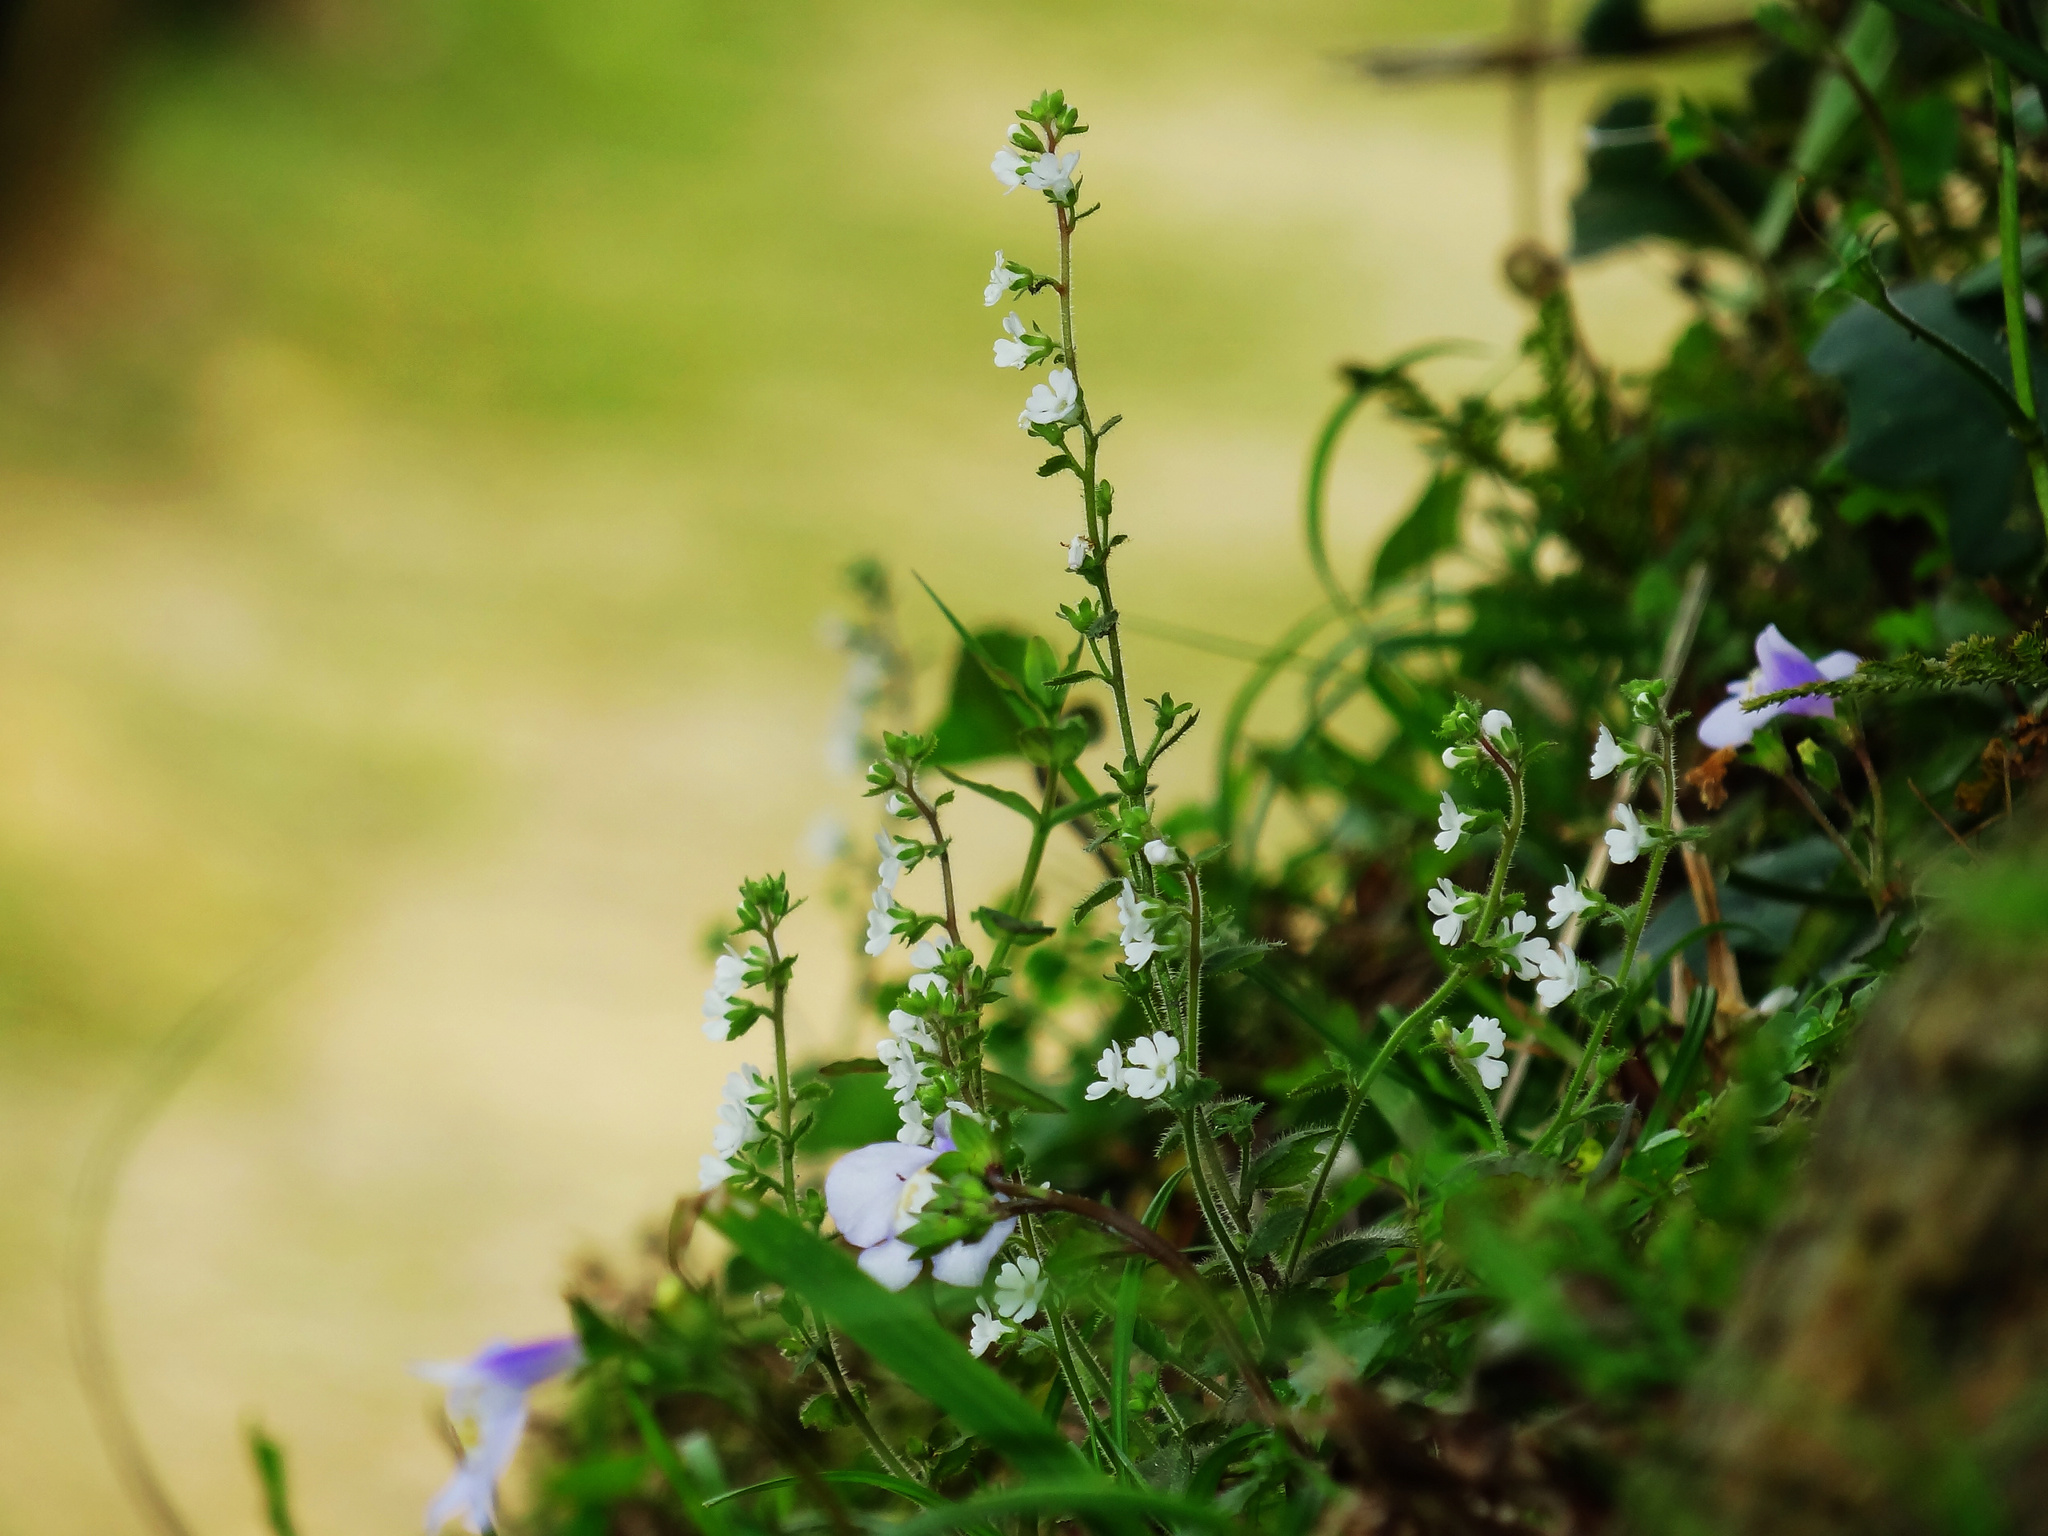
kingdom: Plantae
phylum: Tracheophyta
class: Magnoliopsida
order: Ericales
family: Primulaceae
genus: Stimpsonia
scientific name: Stimpsonia chamaedryoides
